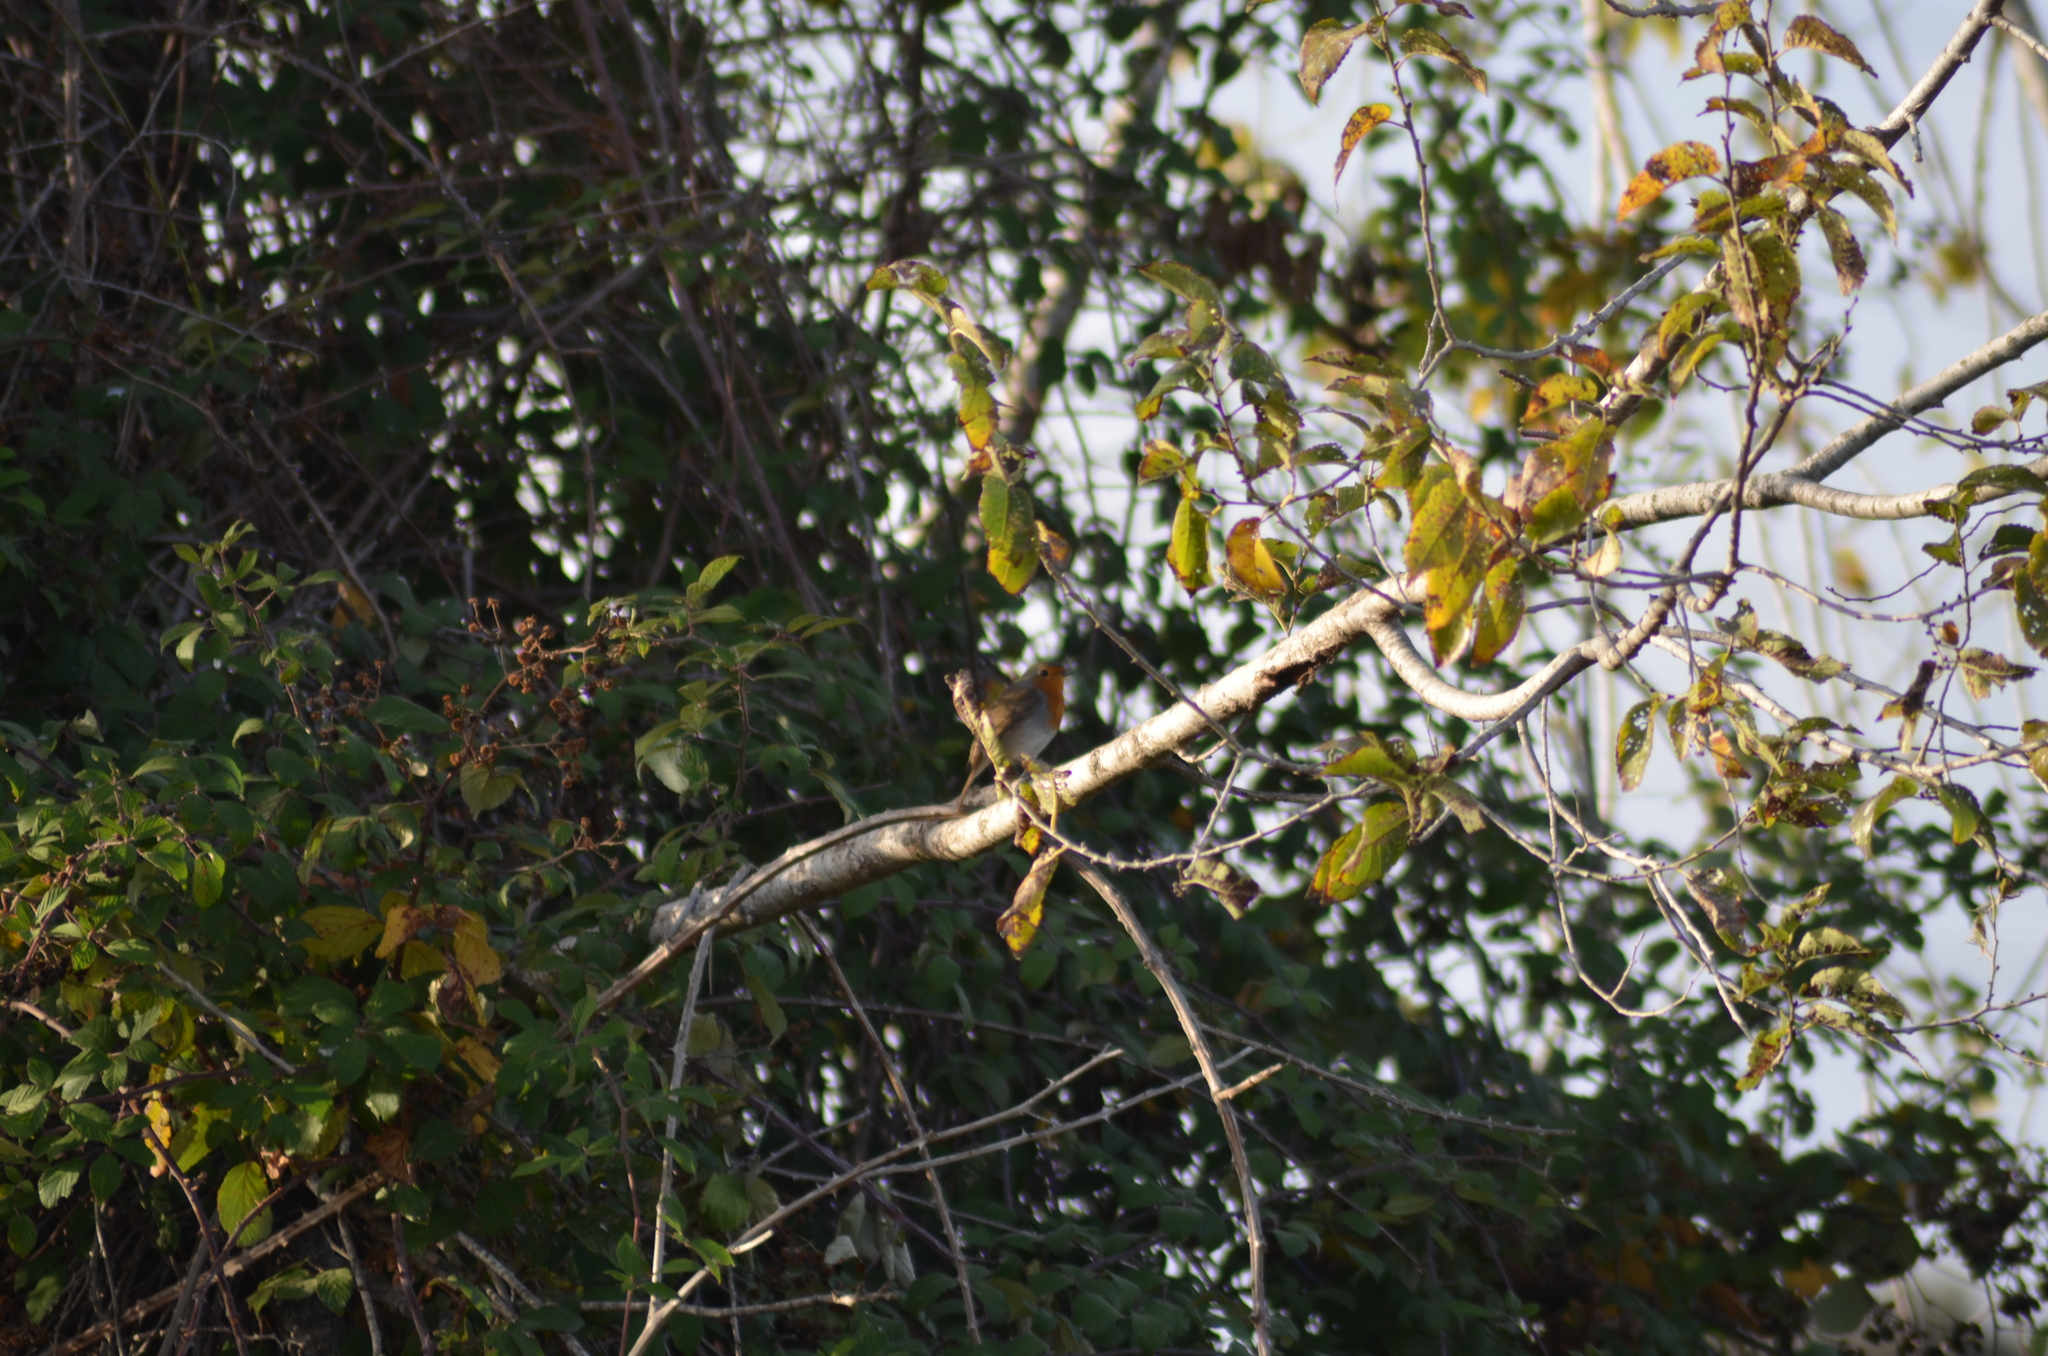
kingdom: Animalia
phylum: Chordata
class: Aves
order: Passeriformes
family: Muscicapidae
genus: Erithacus
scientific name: Erithacus rubecula
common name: European robin
